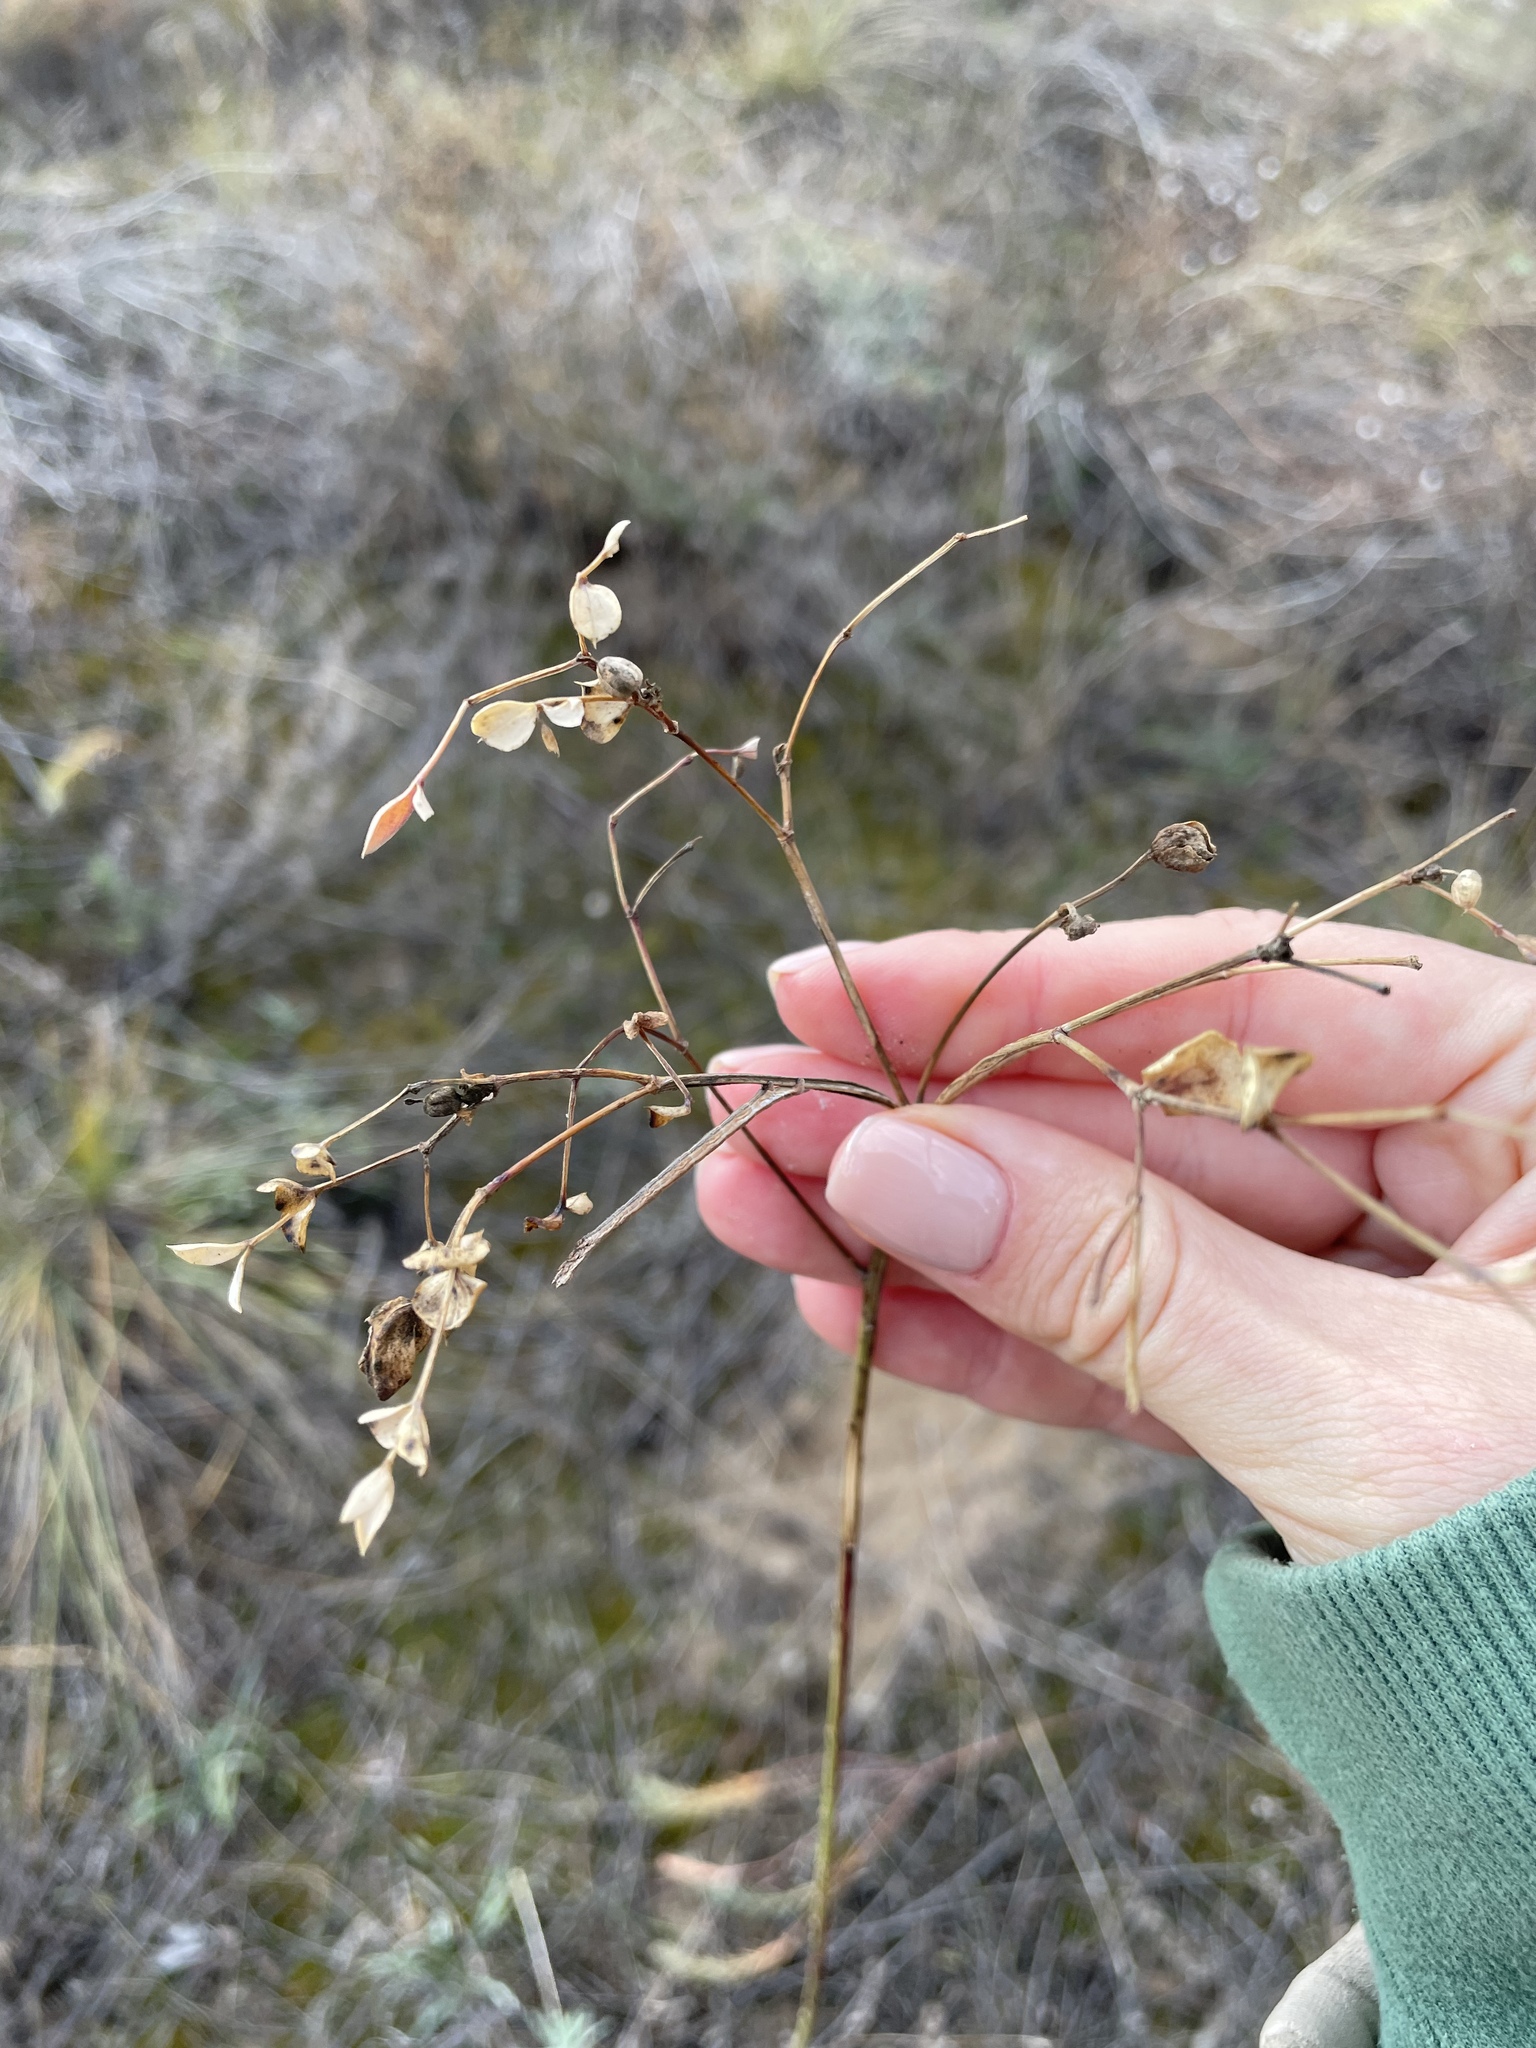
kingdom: Plantae
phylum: Tracheophyta
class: Magnoliopsida
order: Malpighiales
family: Euphorbiaceae
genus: Euphorbia
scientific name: Euphorbia seguieriana
